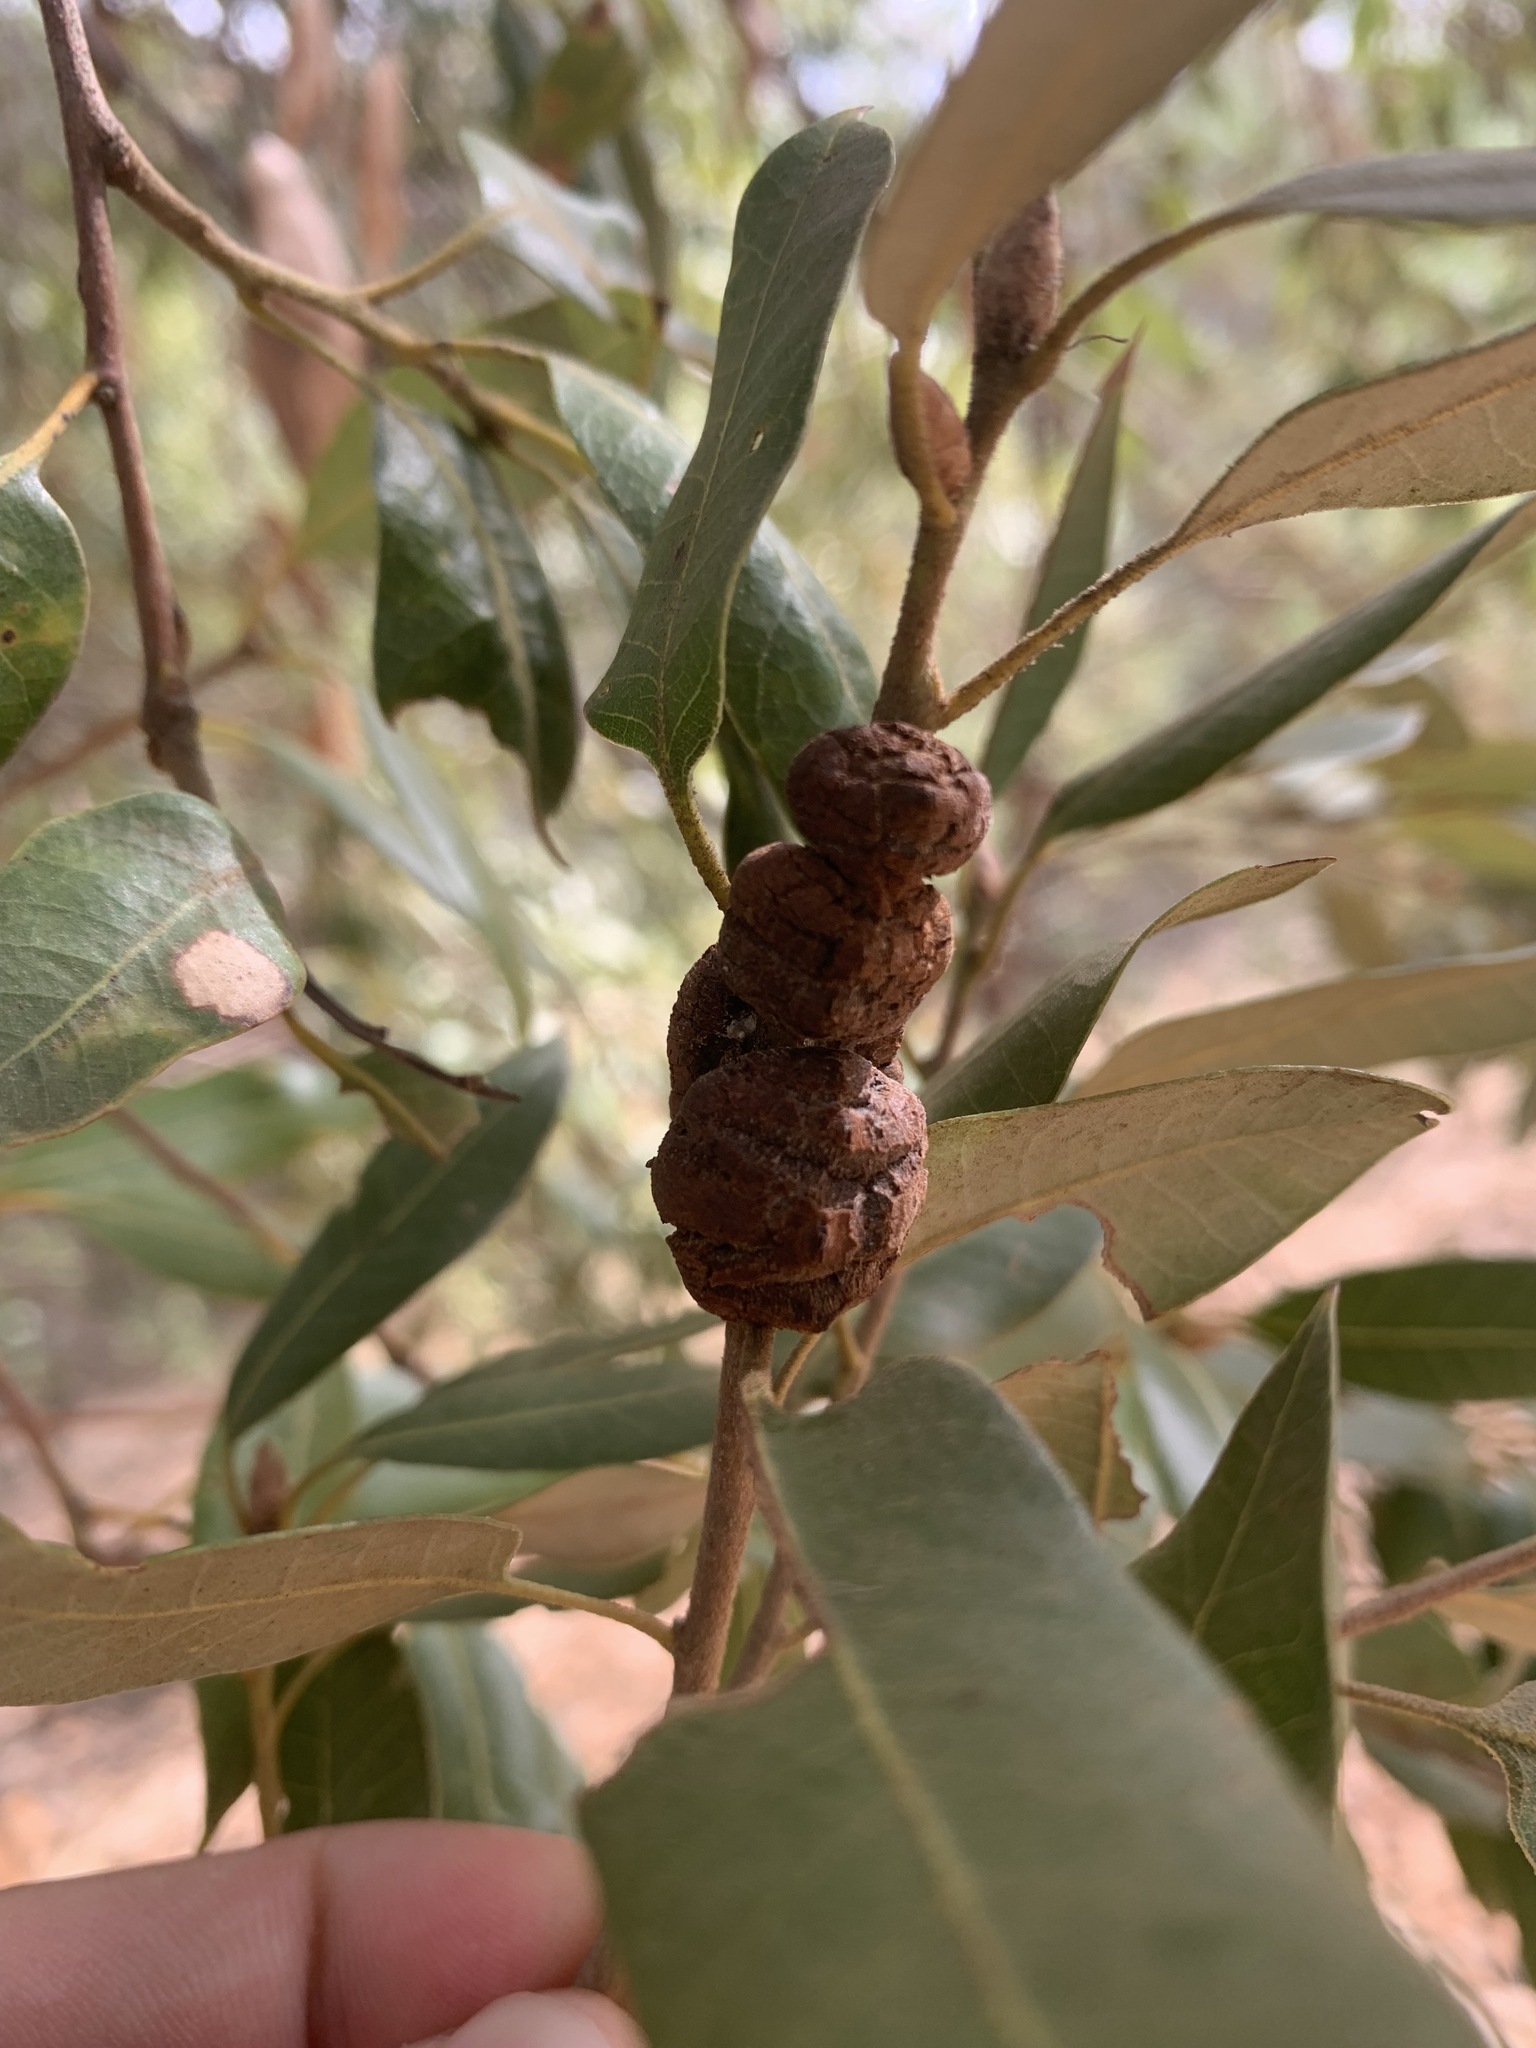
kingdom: Animalia
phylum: Arthropoda
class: Insecta
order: Hymenoptera
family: Cynipidae
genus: Disholandricus
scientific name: Disholandricus
